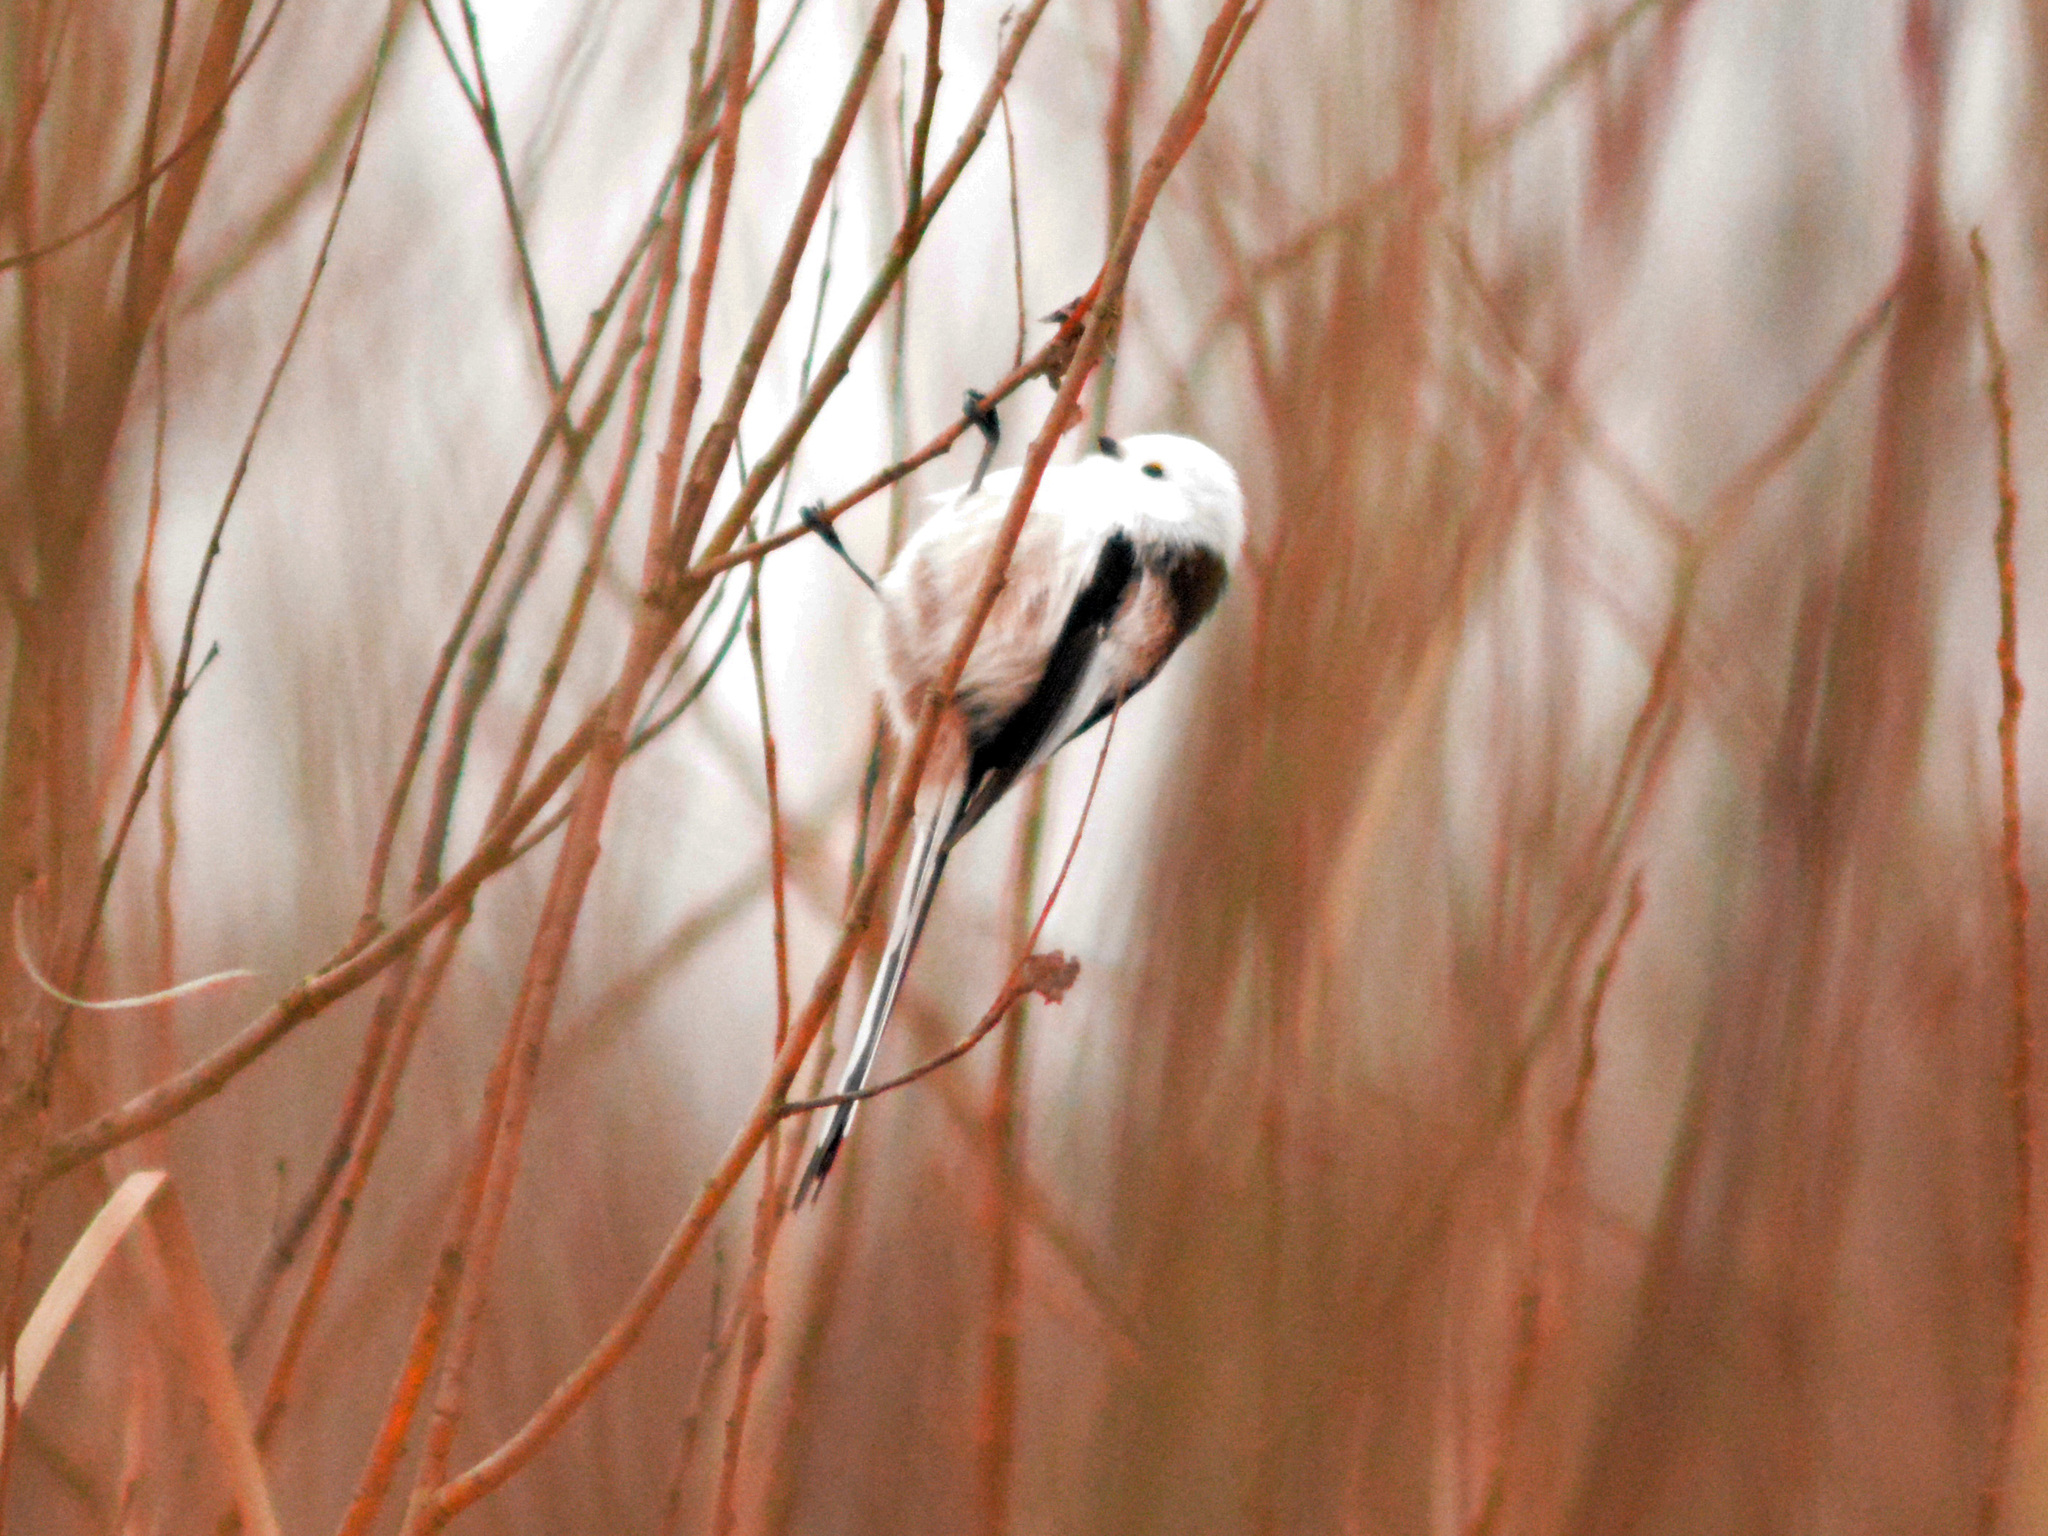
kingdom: Animalia
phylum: Chordata
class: Aves
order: Passeriformes
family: Aegithalidae
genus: Aegithalos
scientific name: Aegithalos caudatus
